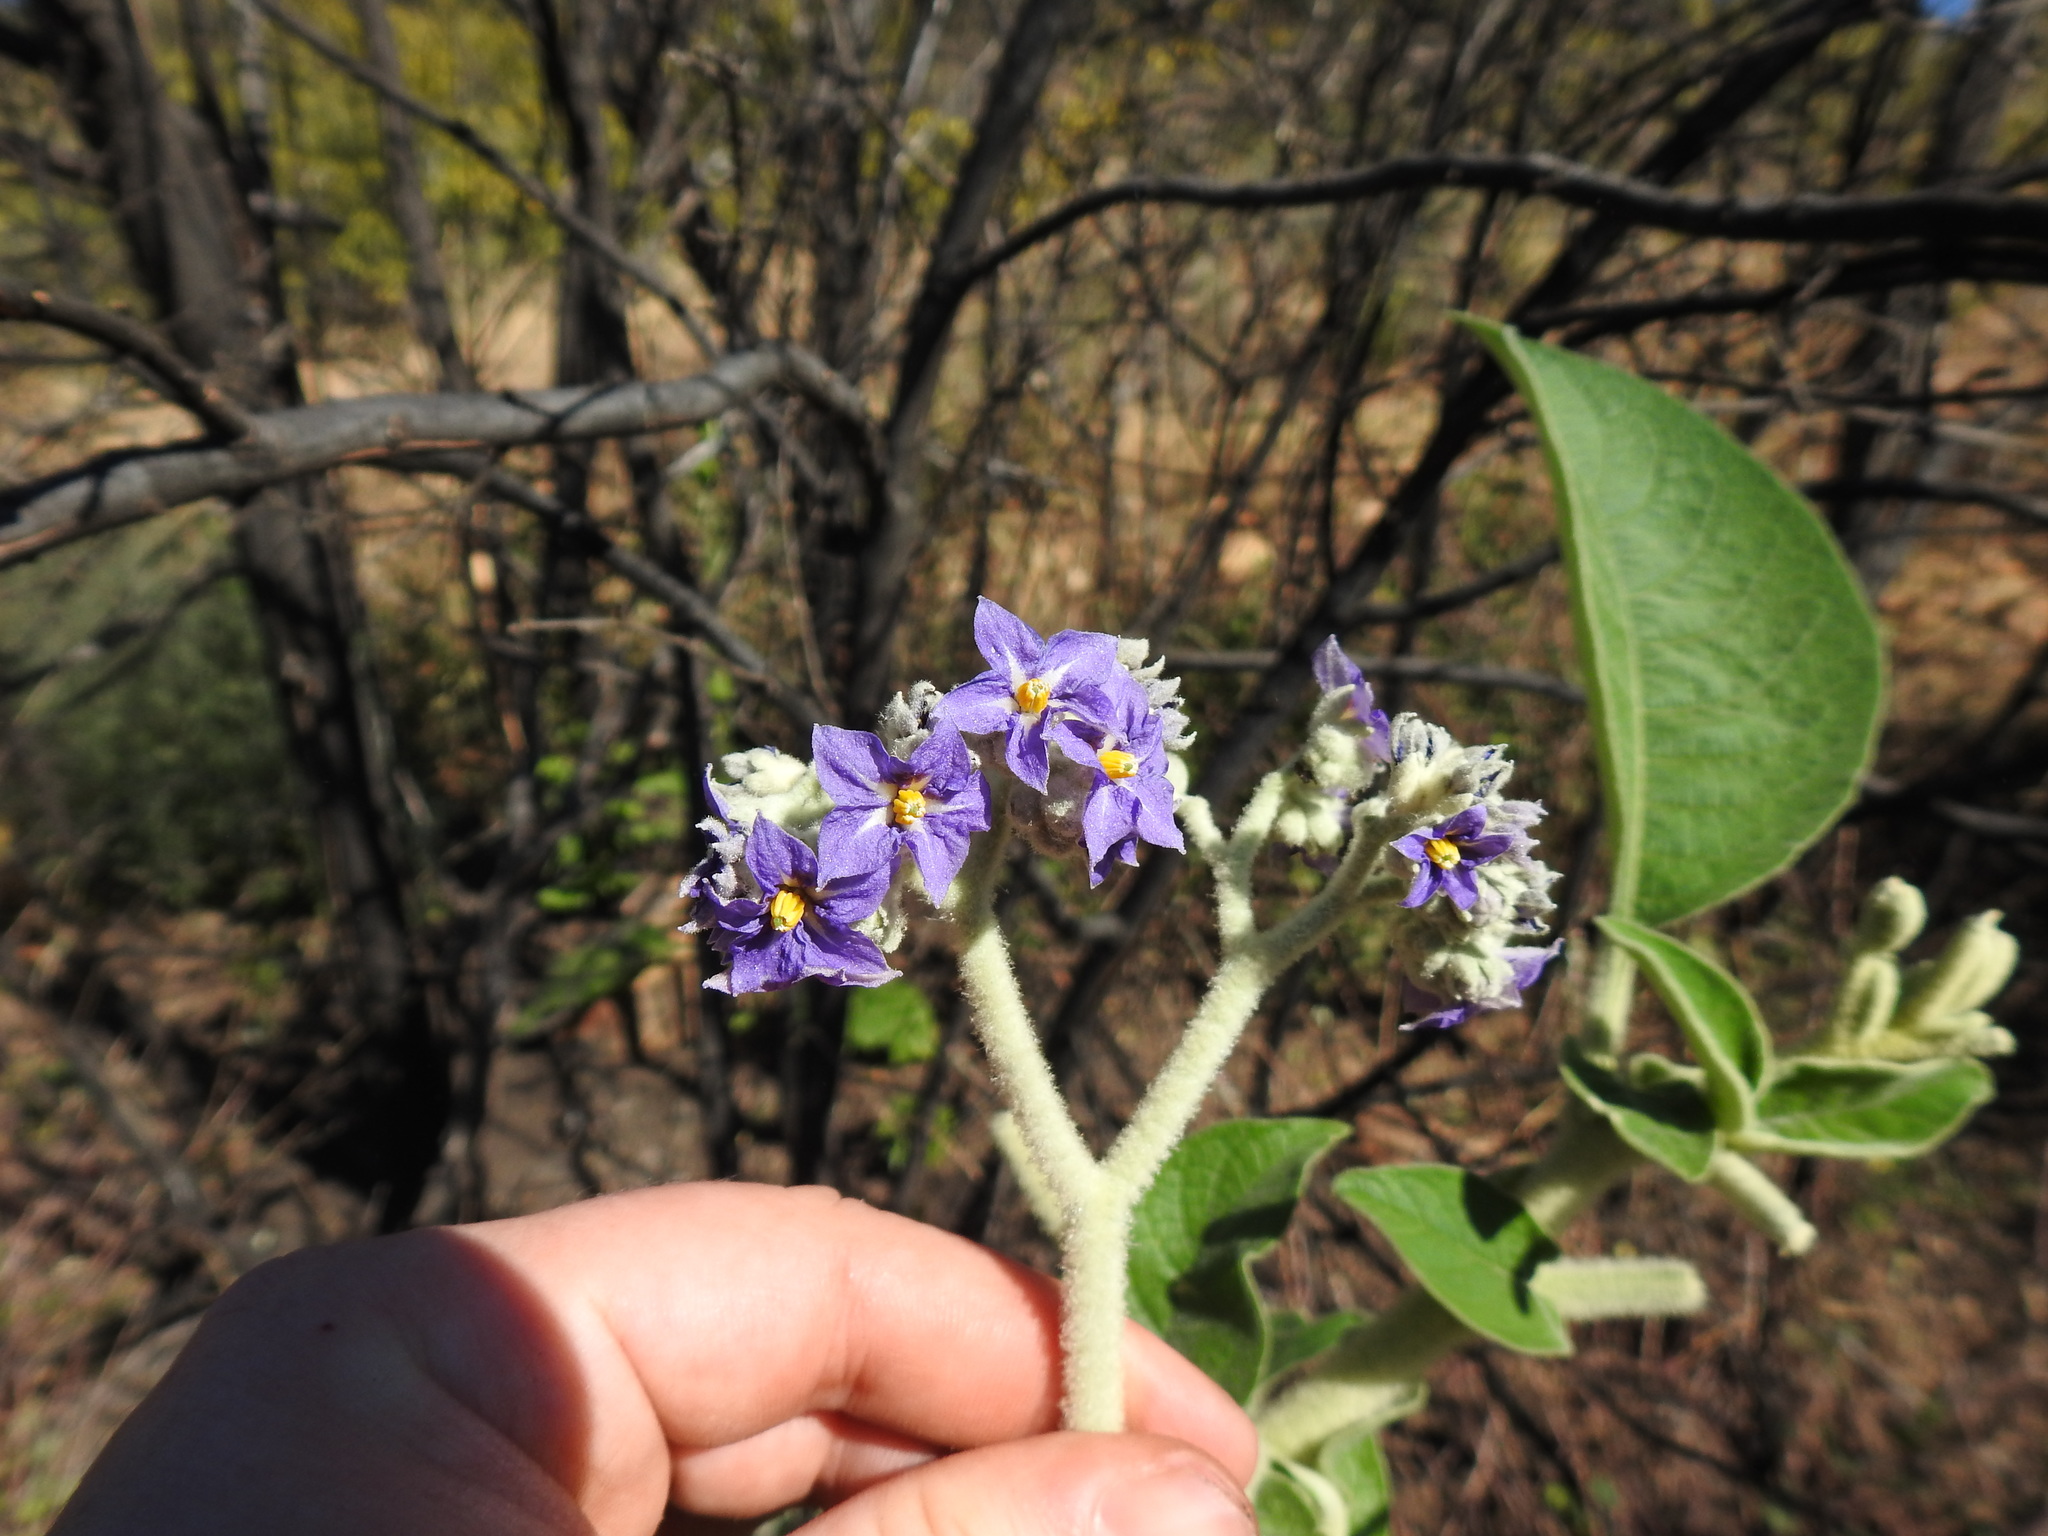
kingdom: Plantae
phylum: Tracheophyta
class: Magnoliopsida
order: Solanales
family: Solanaceae
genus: Solanum
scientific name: Solanum mauritianum
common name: Earleaf nightshade
